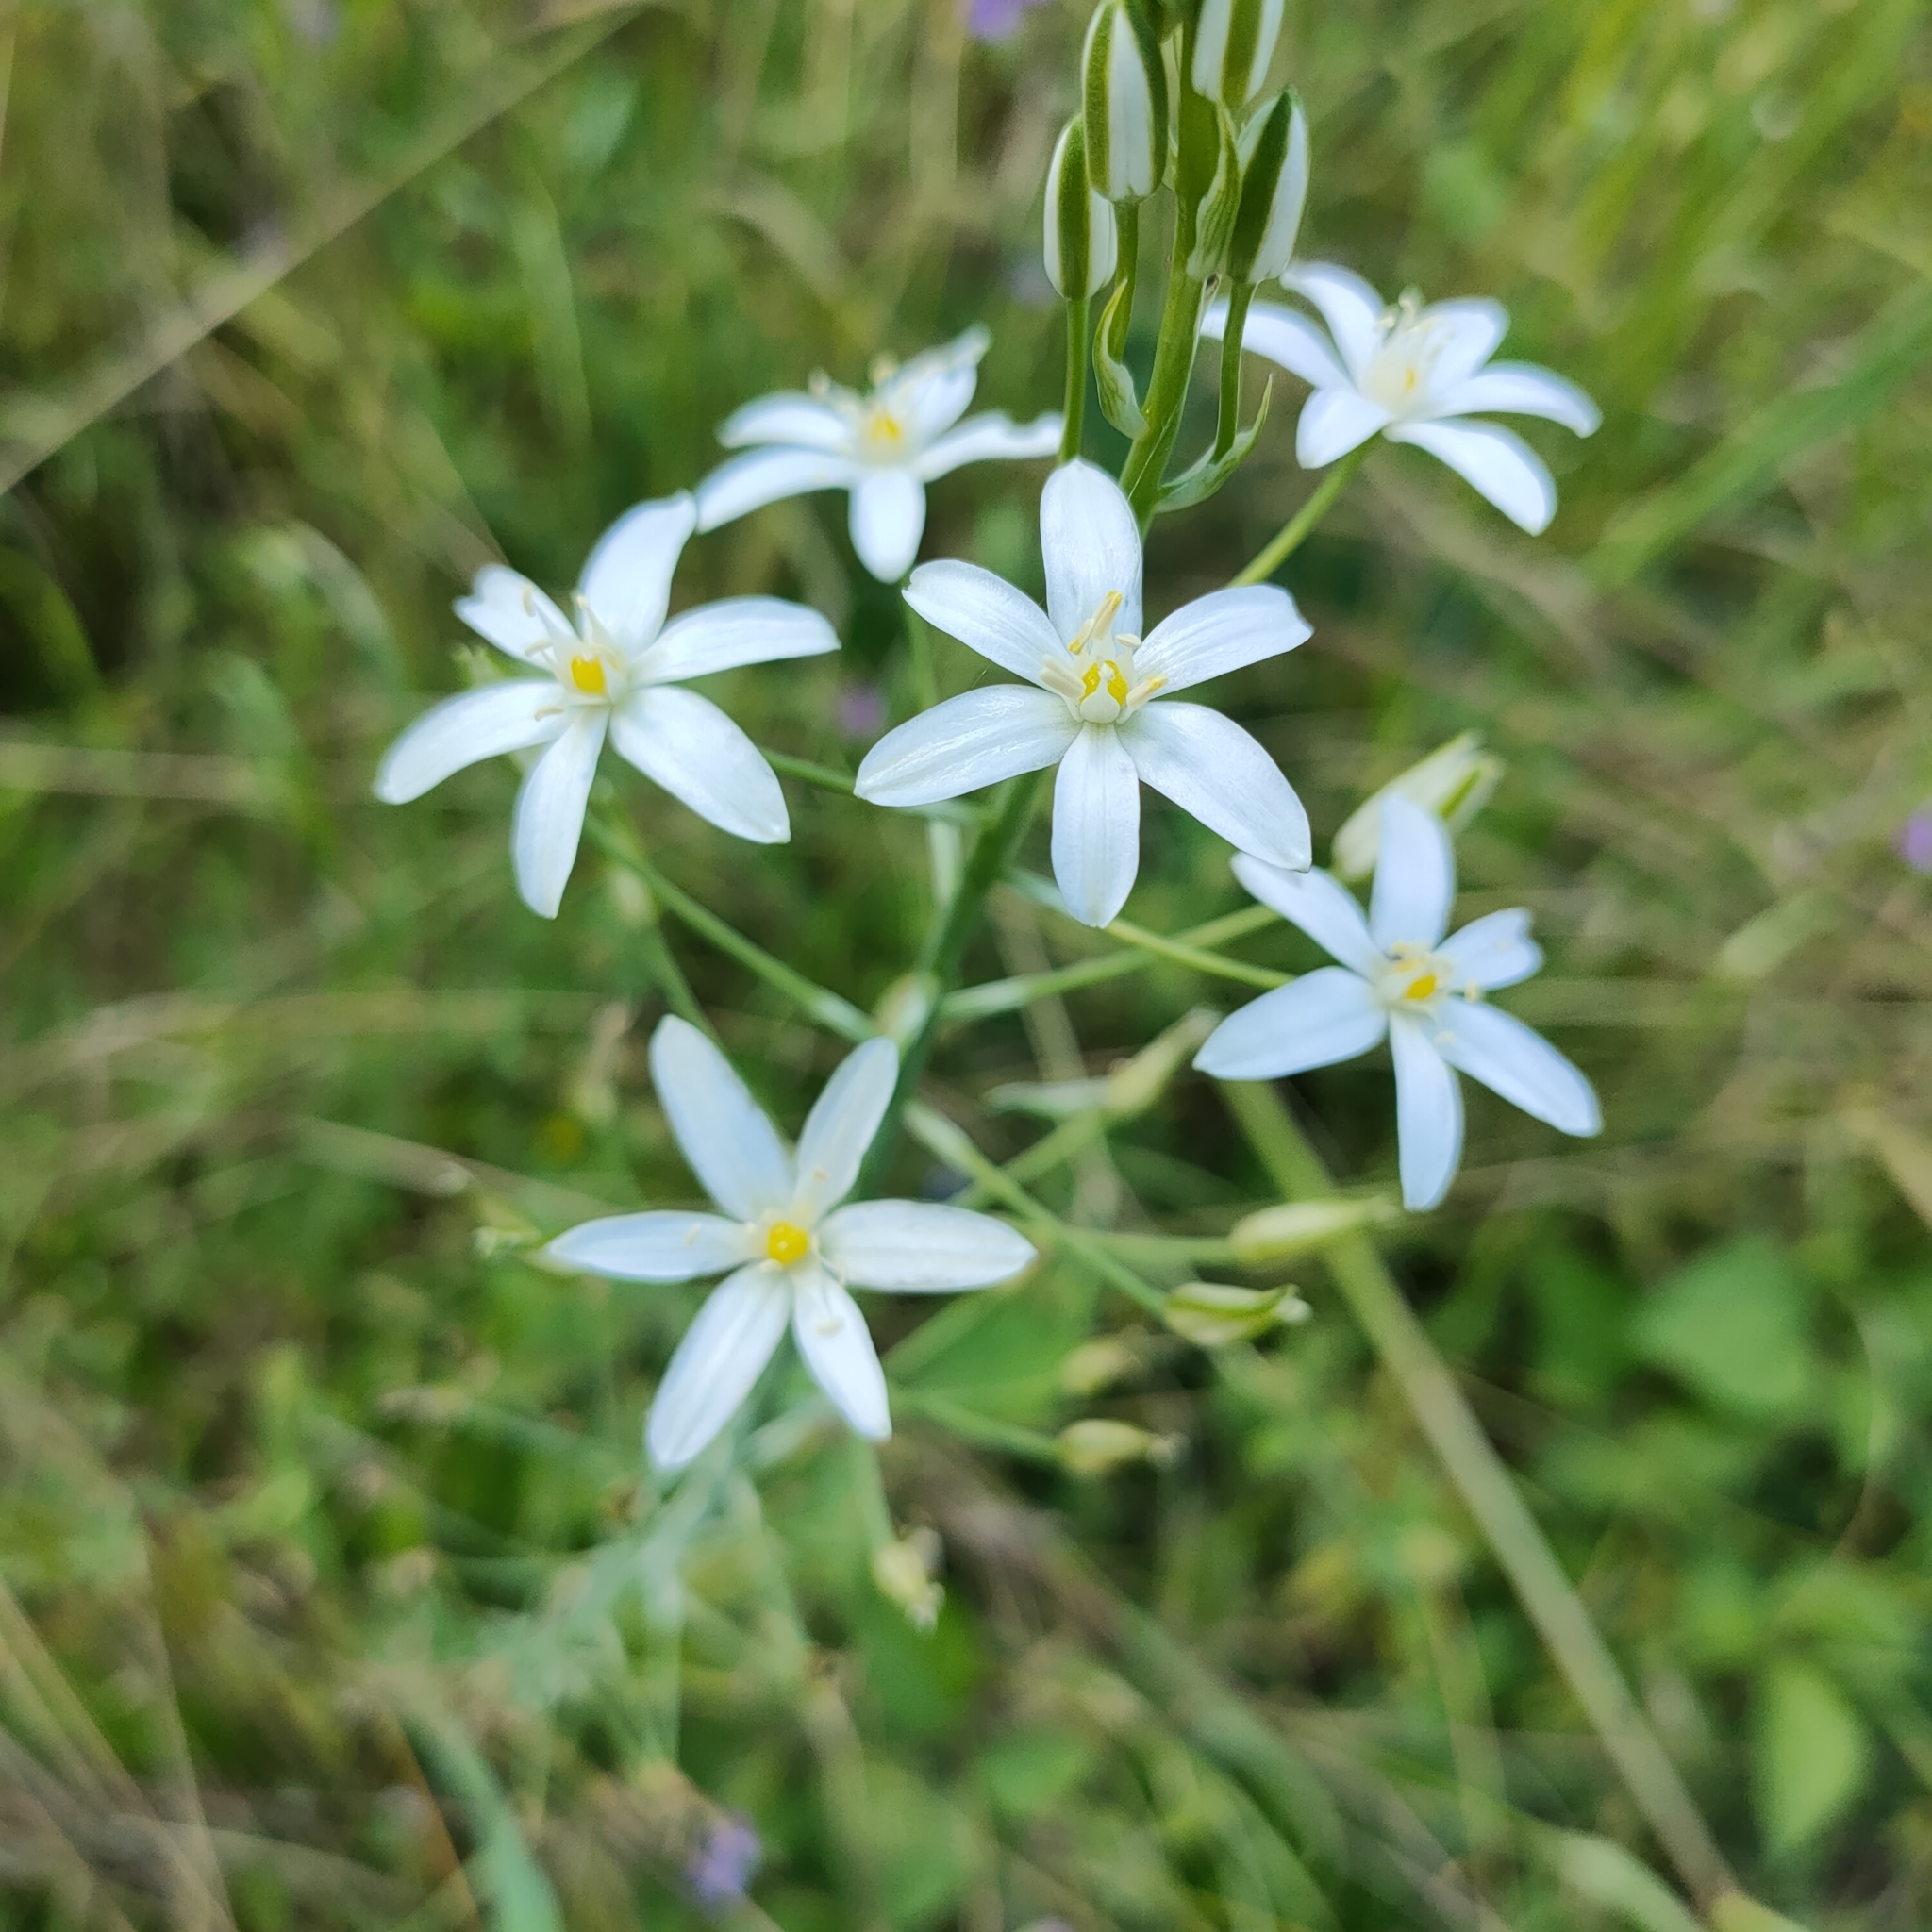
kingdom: Plantae
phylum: Tracheophyta
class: Liliopsida
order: Asparagales
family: Asparagaceae
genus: Ornithogalum
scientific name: Ornithogalum pyramidale
